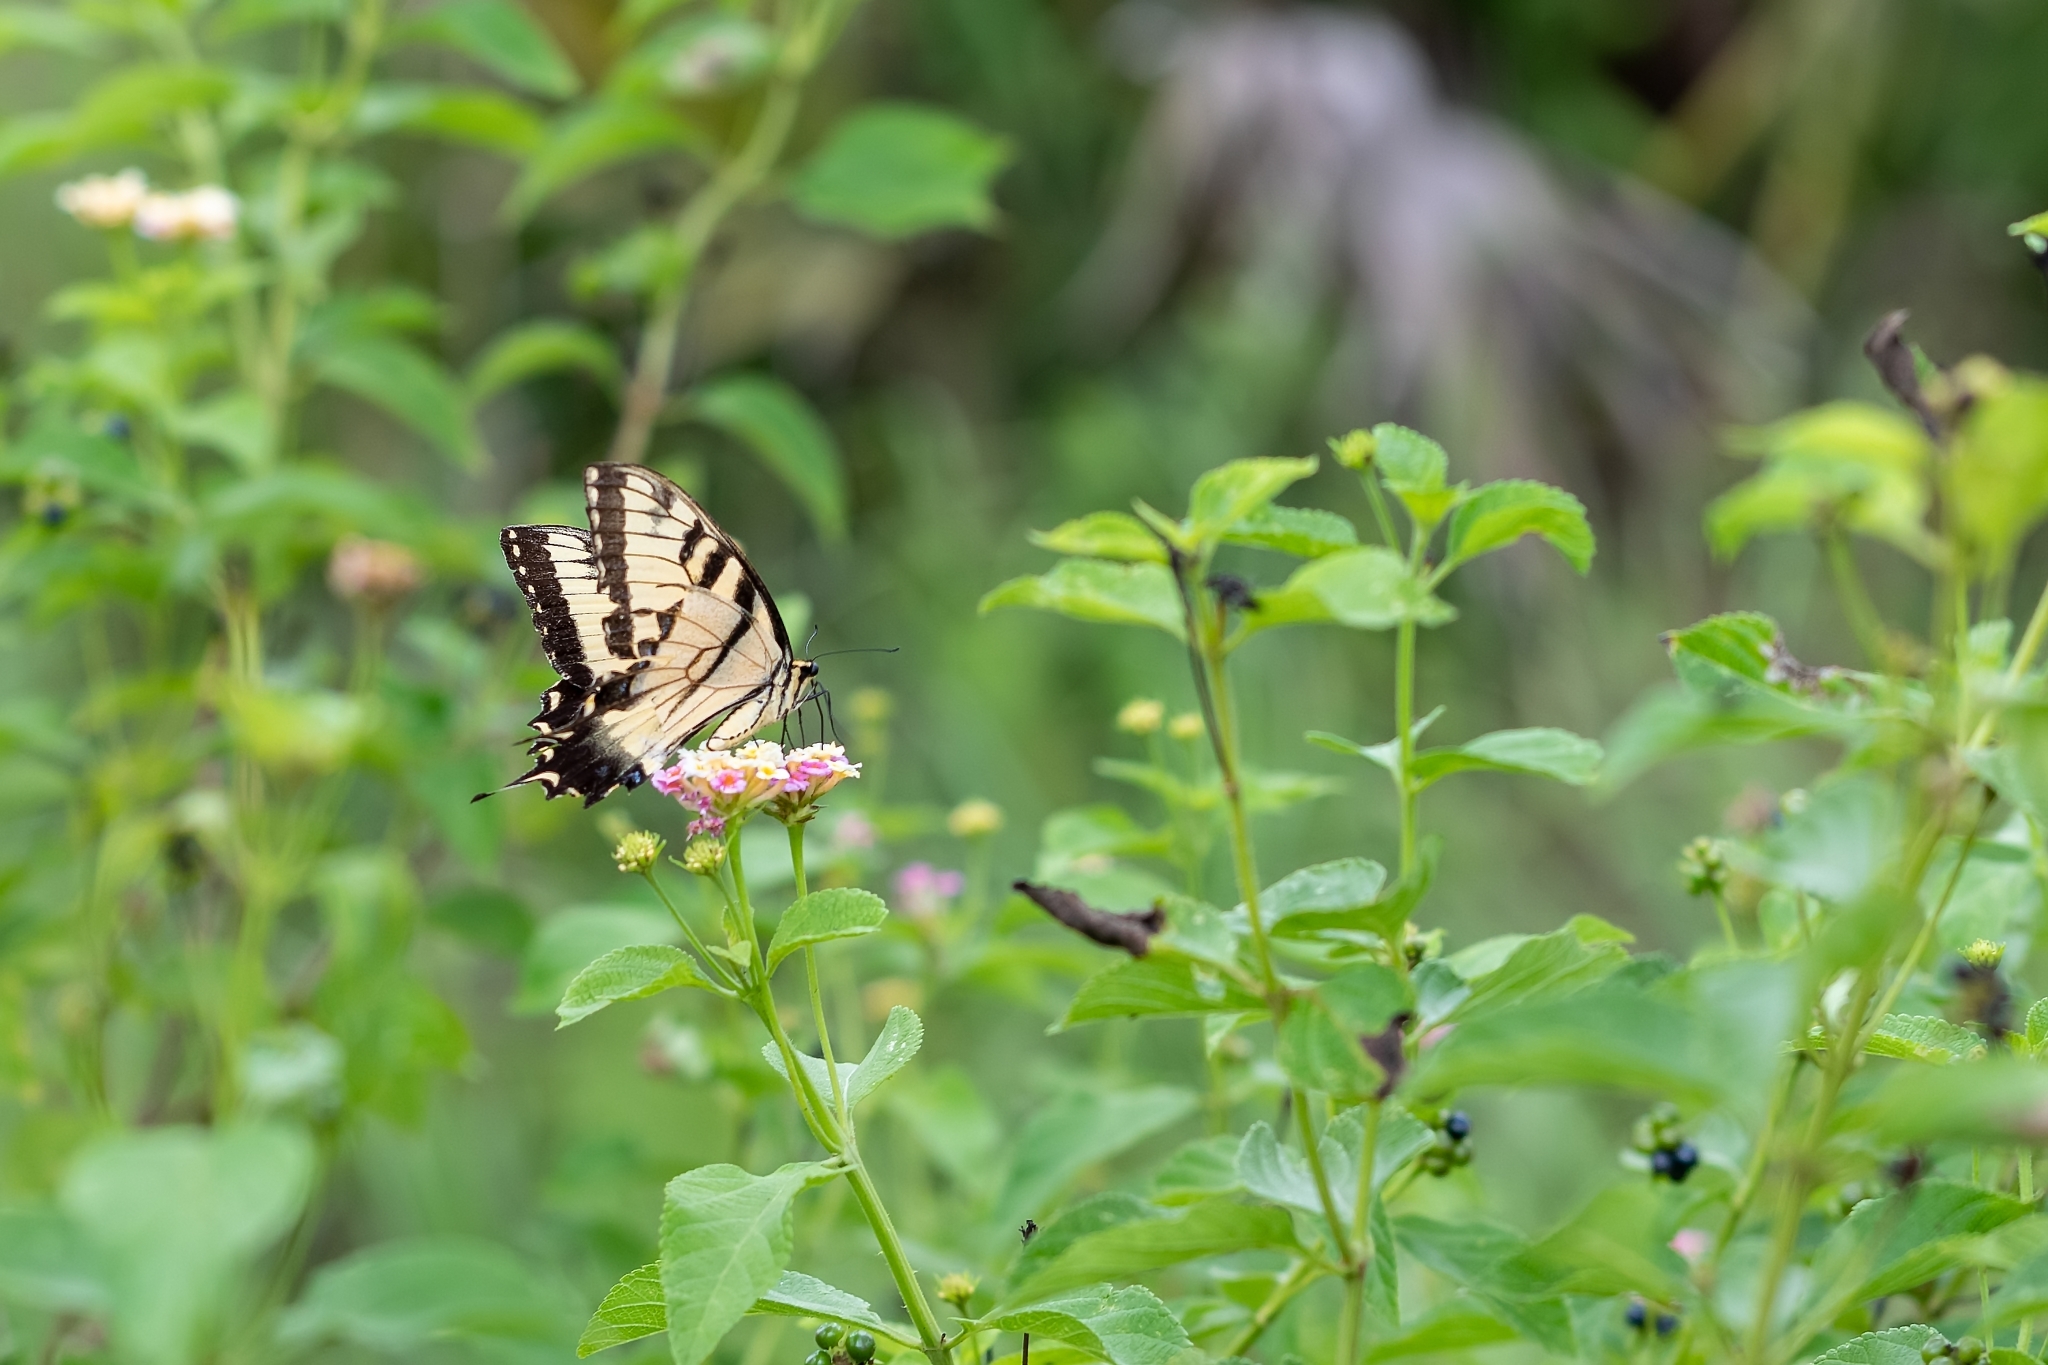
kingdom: Animalia
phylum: Arthropoda
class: Insecta
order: Lepidoptera
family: Papilionidae
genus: Papilio
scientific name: Papilio glaucus
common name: Tiger swallowtail
